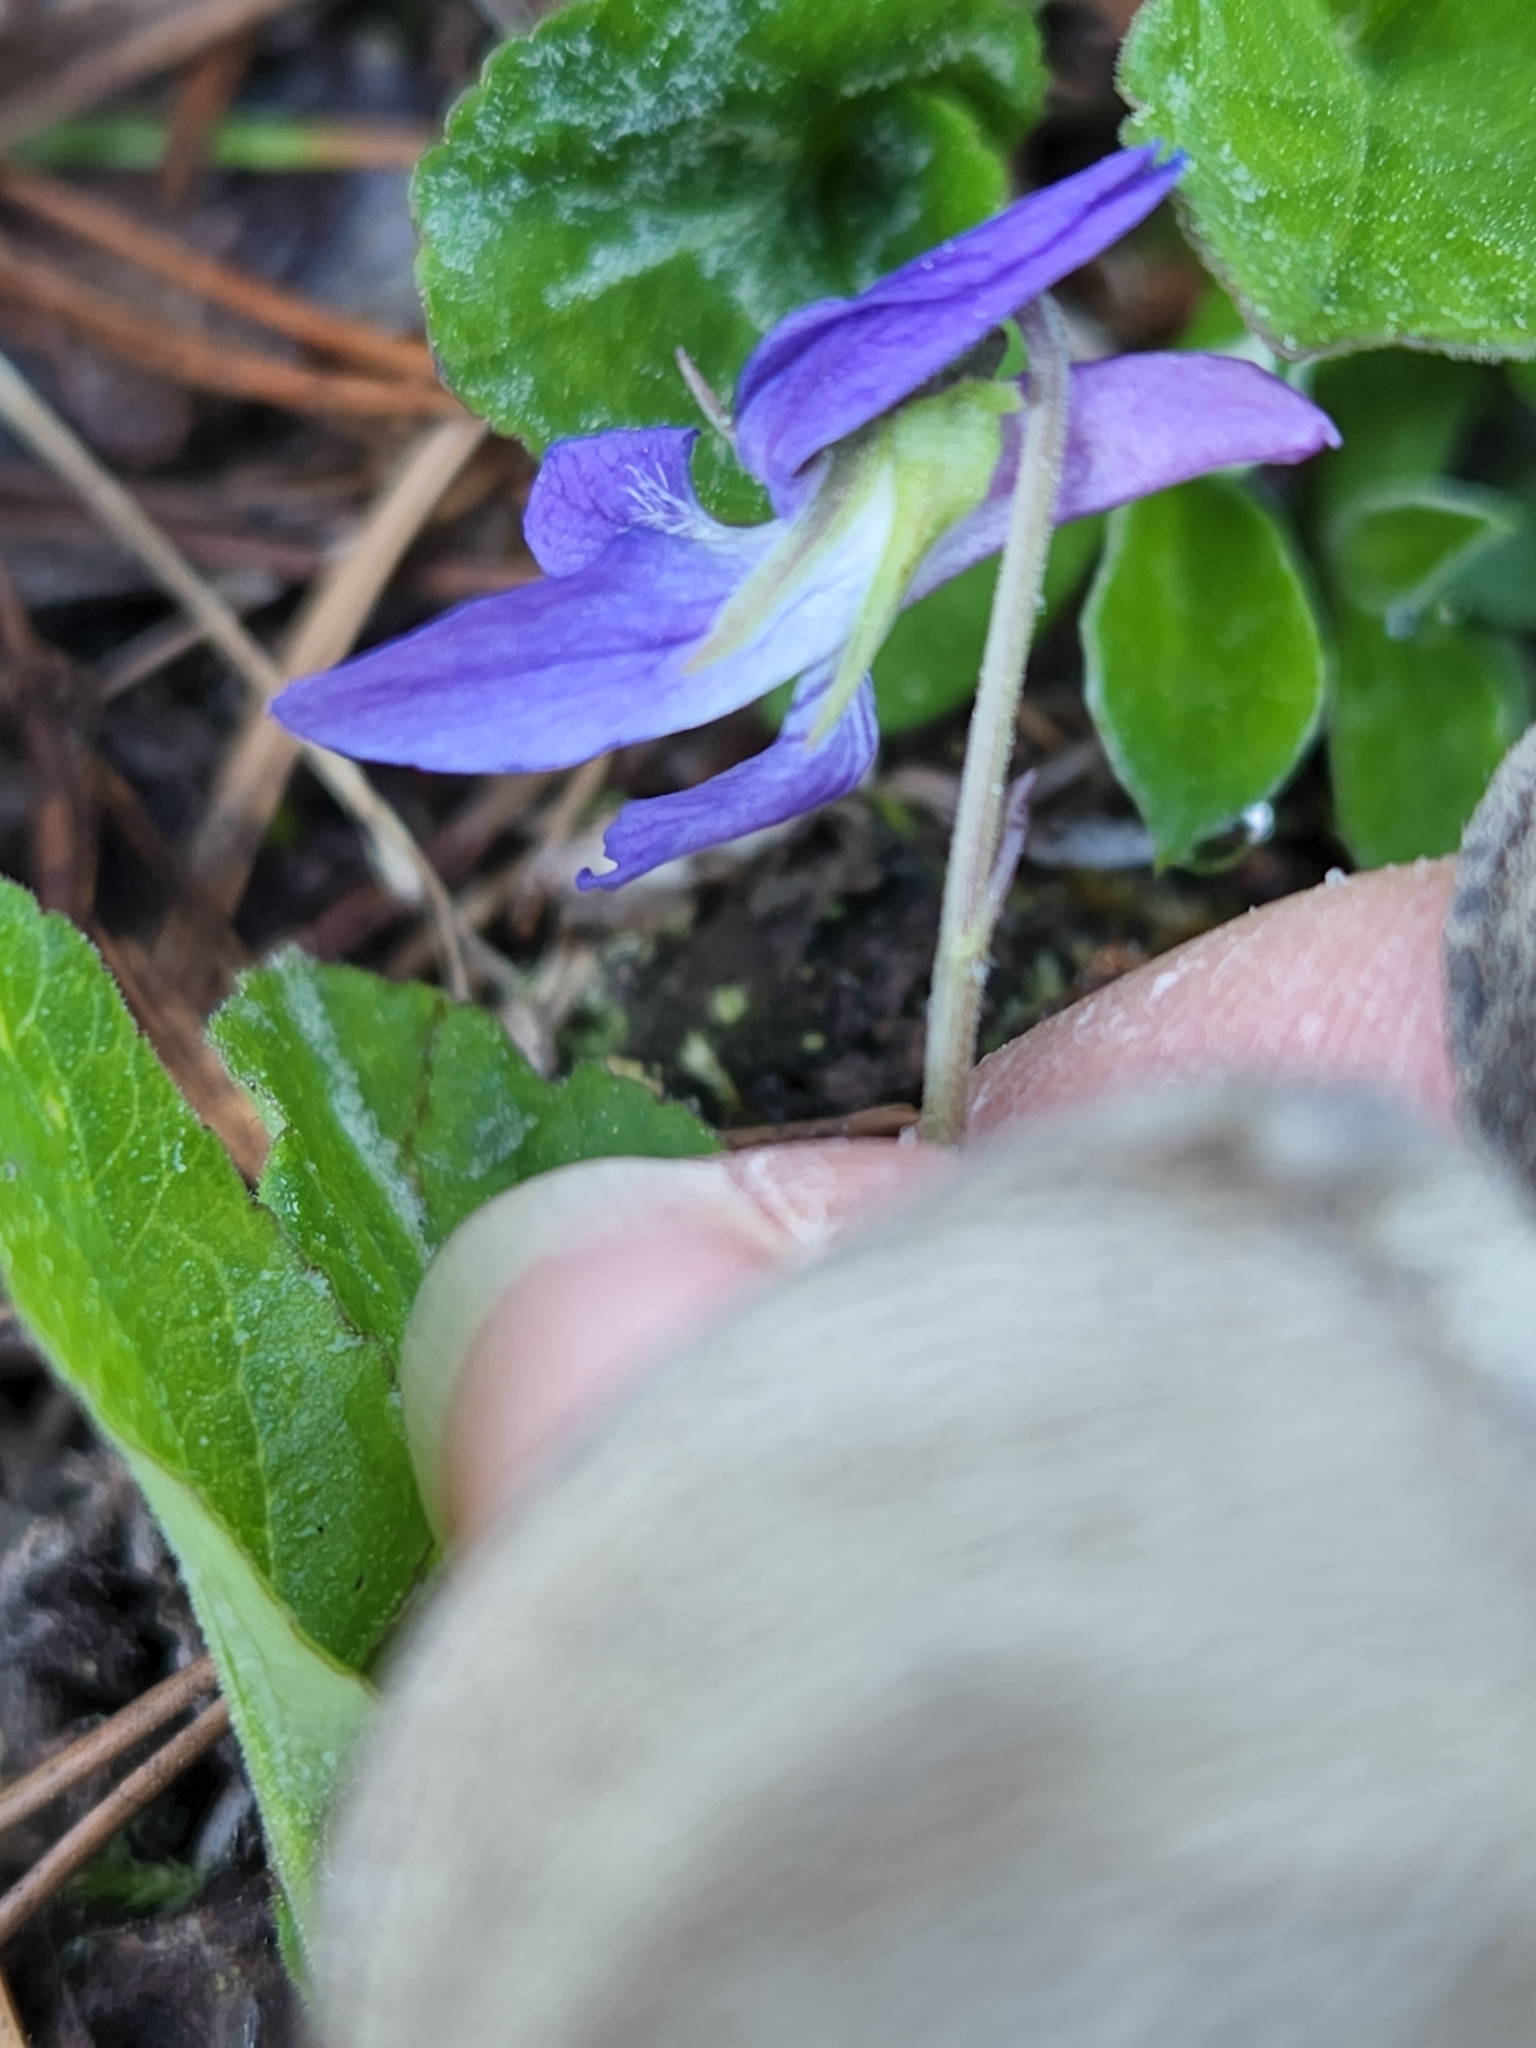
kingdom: Plantae
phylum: Tracheophyta
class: Magnoliopsida
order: Malpighiales
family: Violaceae
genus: Viola
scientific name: Viola adunca
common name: Sand violet
